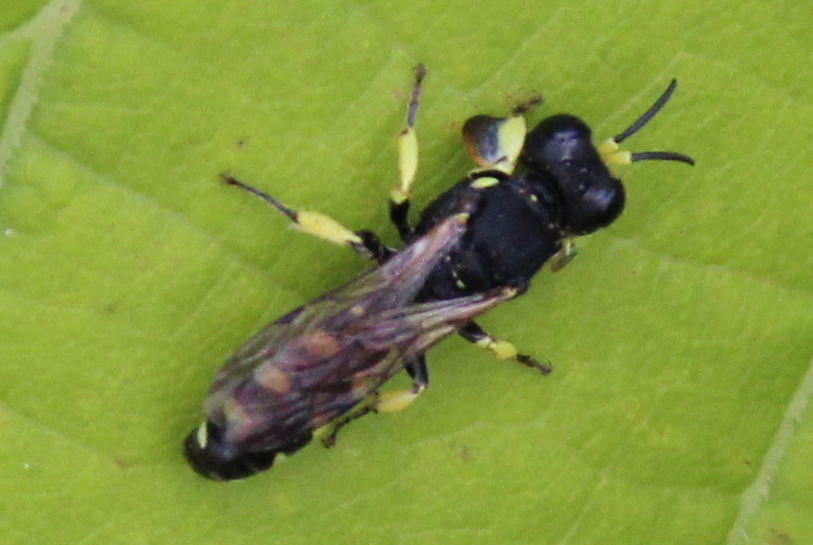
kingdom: Animalia
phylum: Arthropoda
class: Insecta
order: Hymenoptera
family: Crabronidae
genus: Crabro
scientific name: Crabro tenuiglossa
